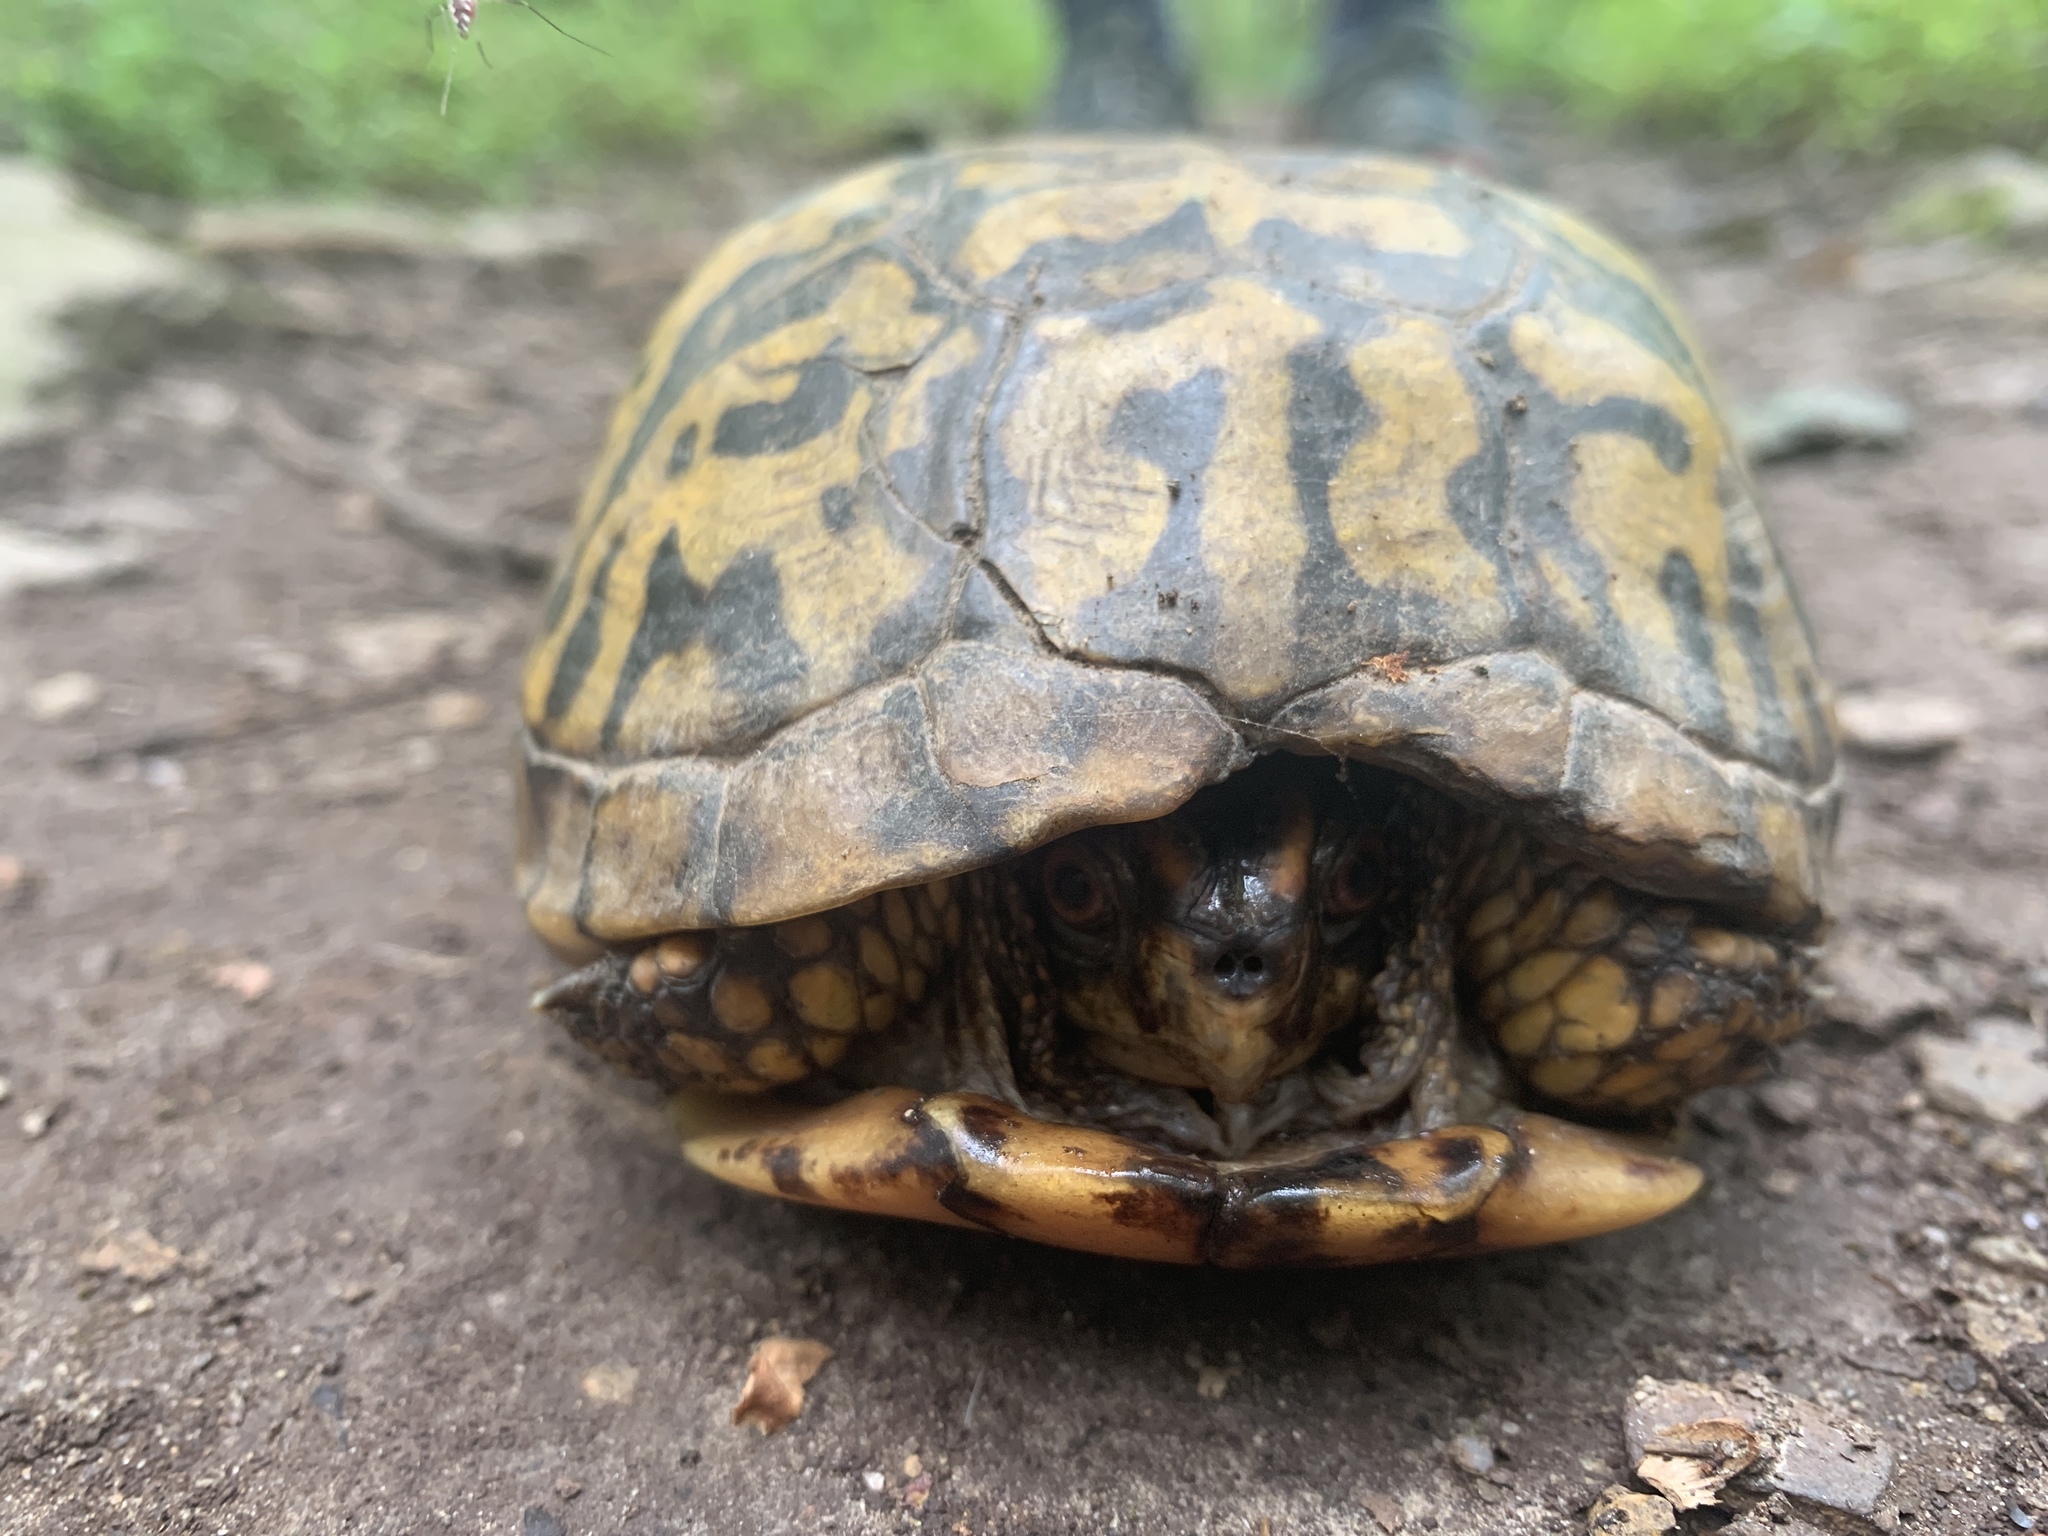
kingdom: Animalia
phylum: Chordata
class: Testudines
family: Emydidae
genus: Terrapene
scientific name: Terrapene carolina
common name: Common box turtle
